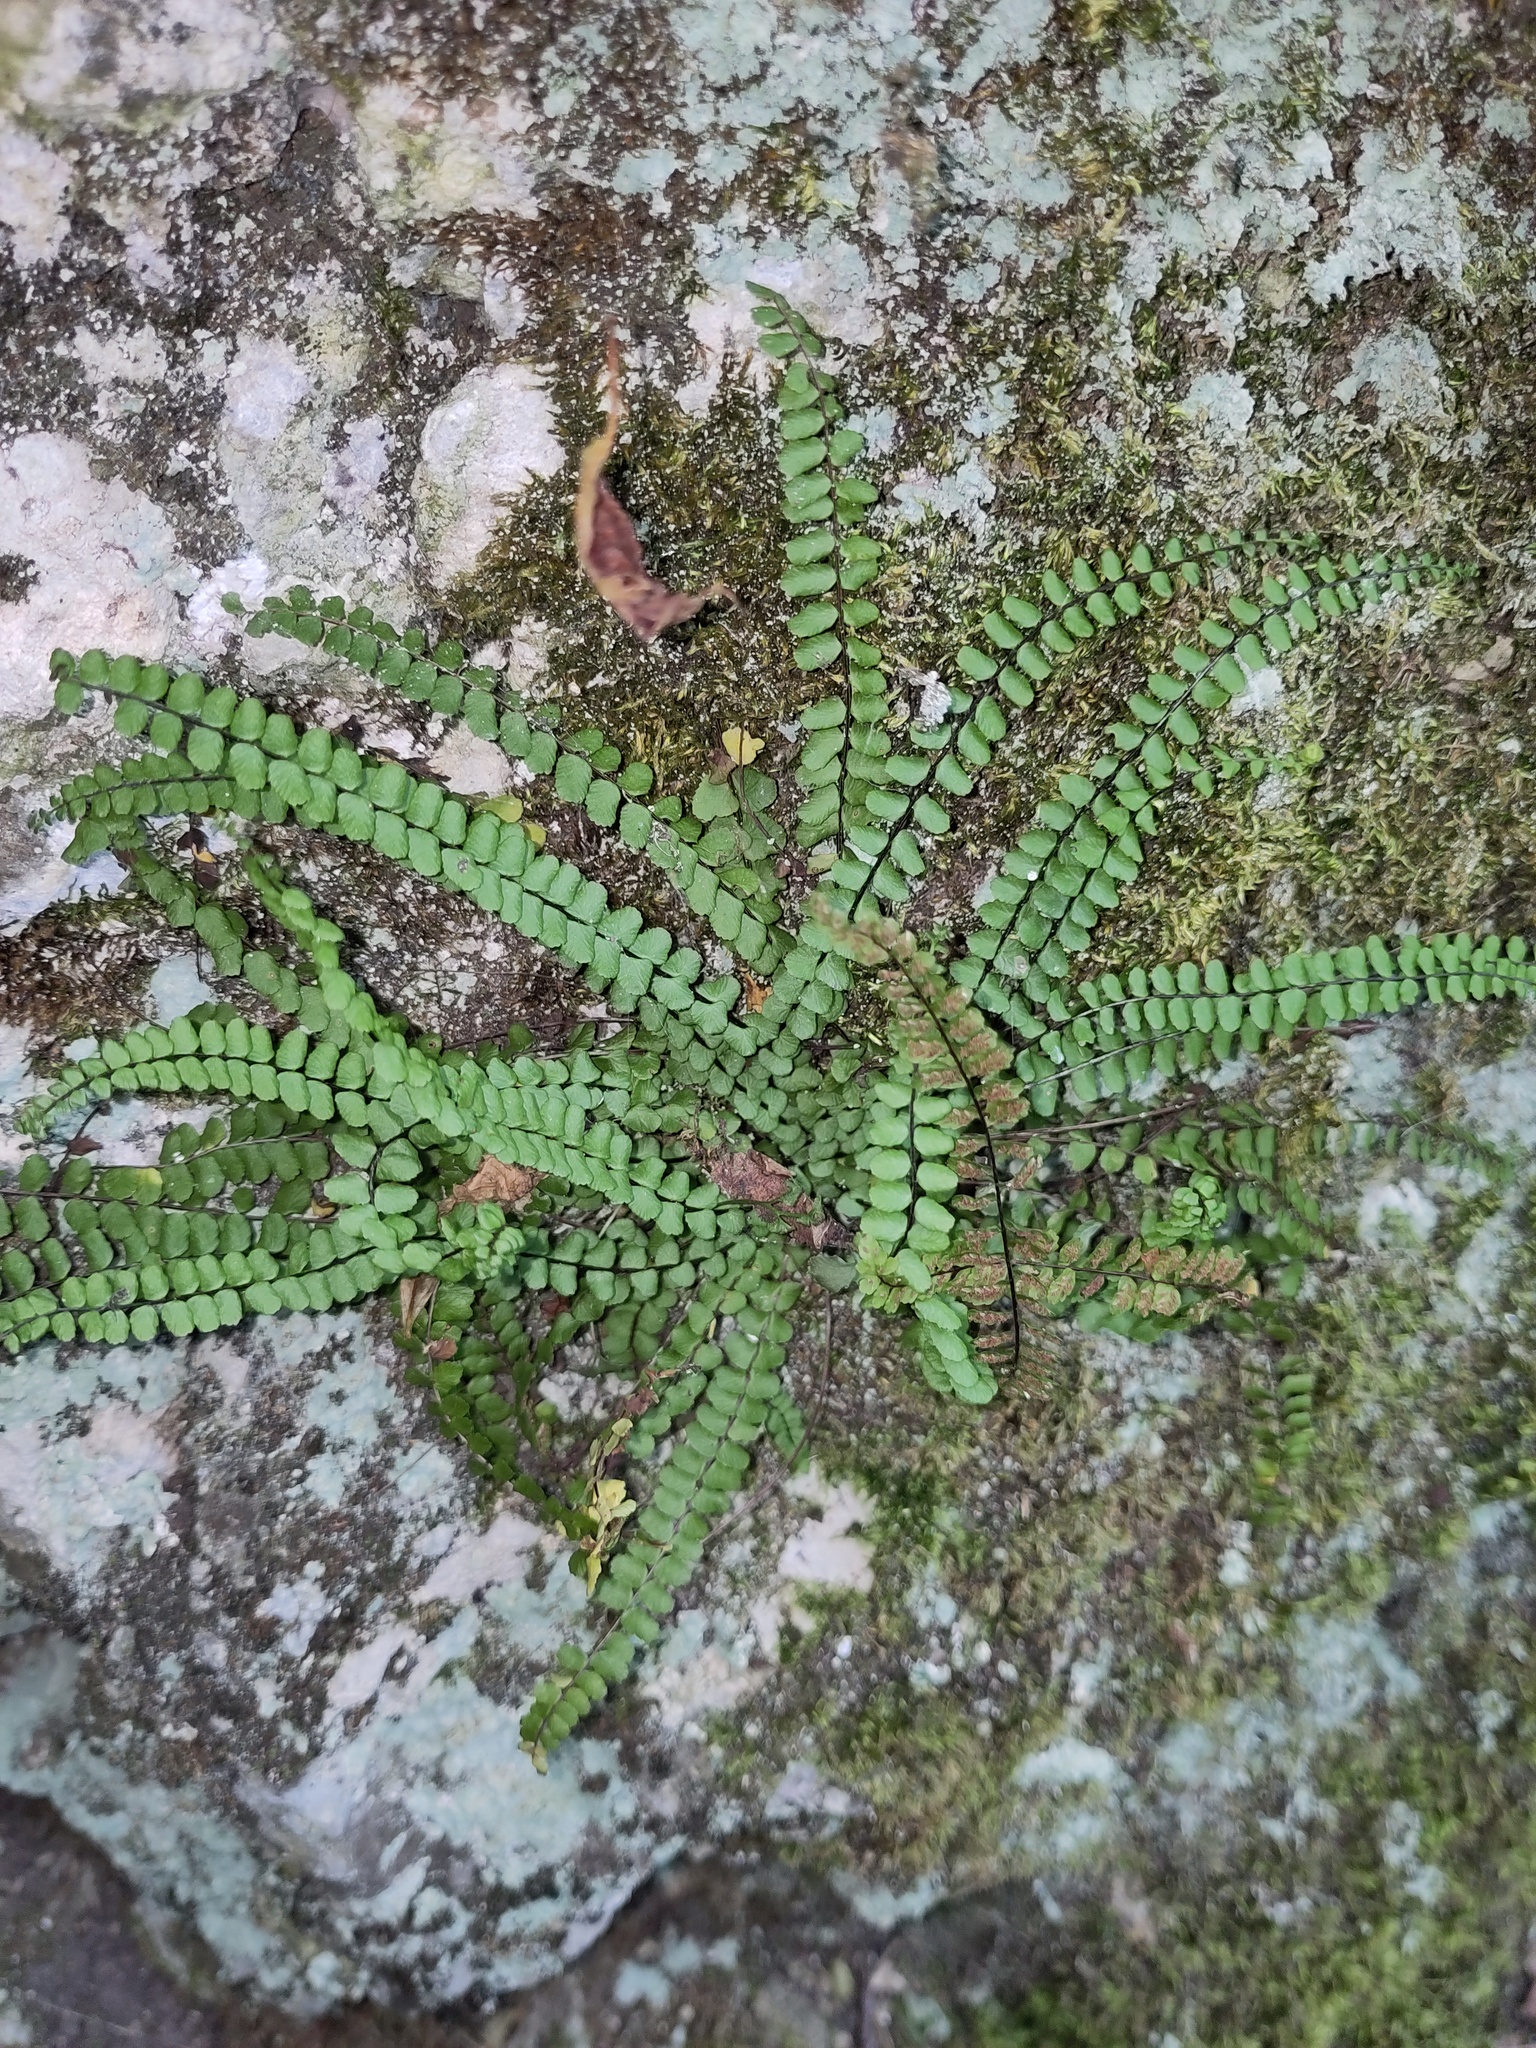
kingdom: Plantae
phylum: Tracheophyta
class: Polypodiopsida
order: Polypodiales
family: Aspleniaceae
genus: Asplenium
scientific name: Asplenium trichomanes
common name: Maidenhair spleenwort
